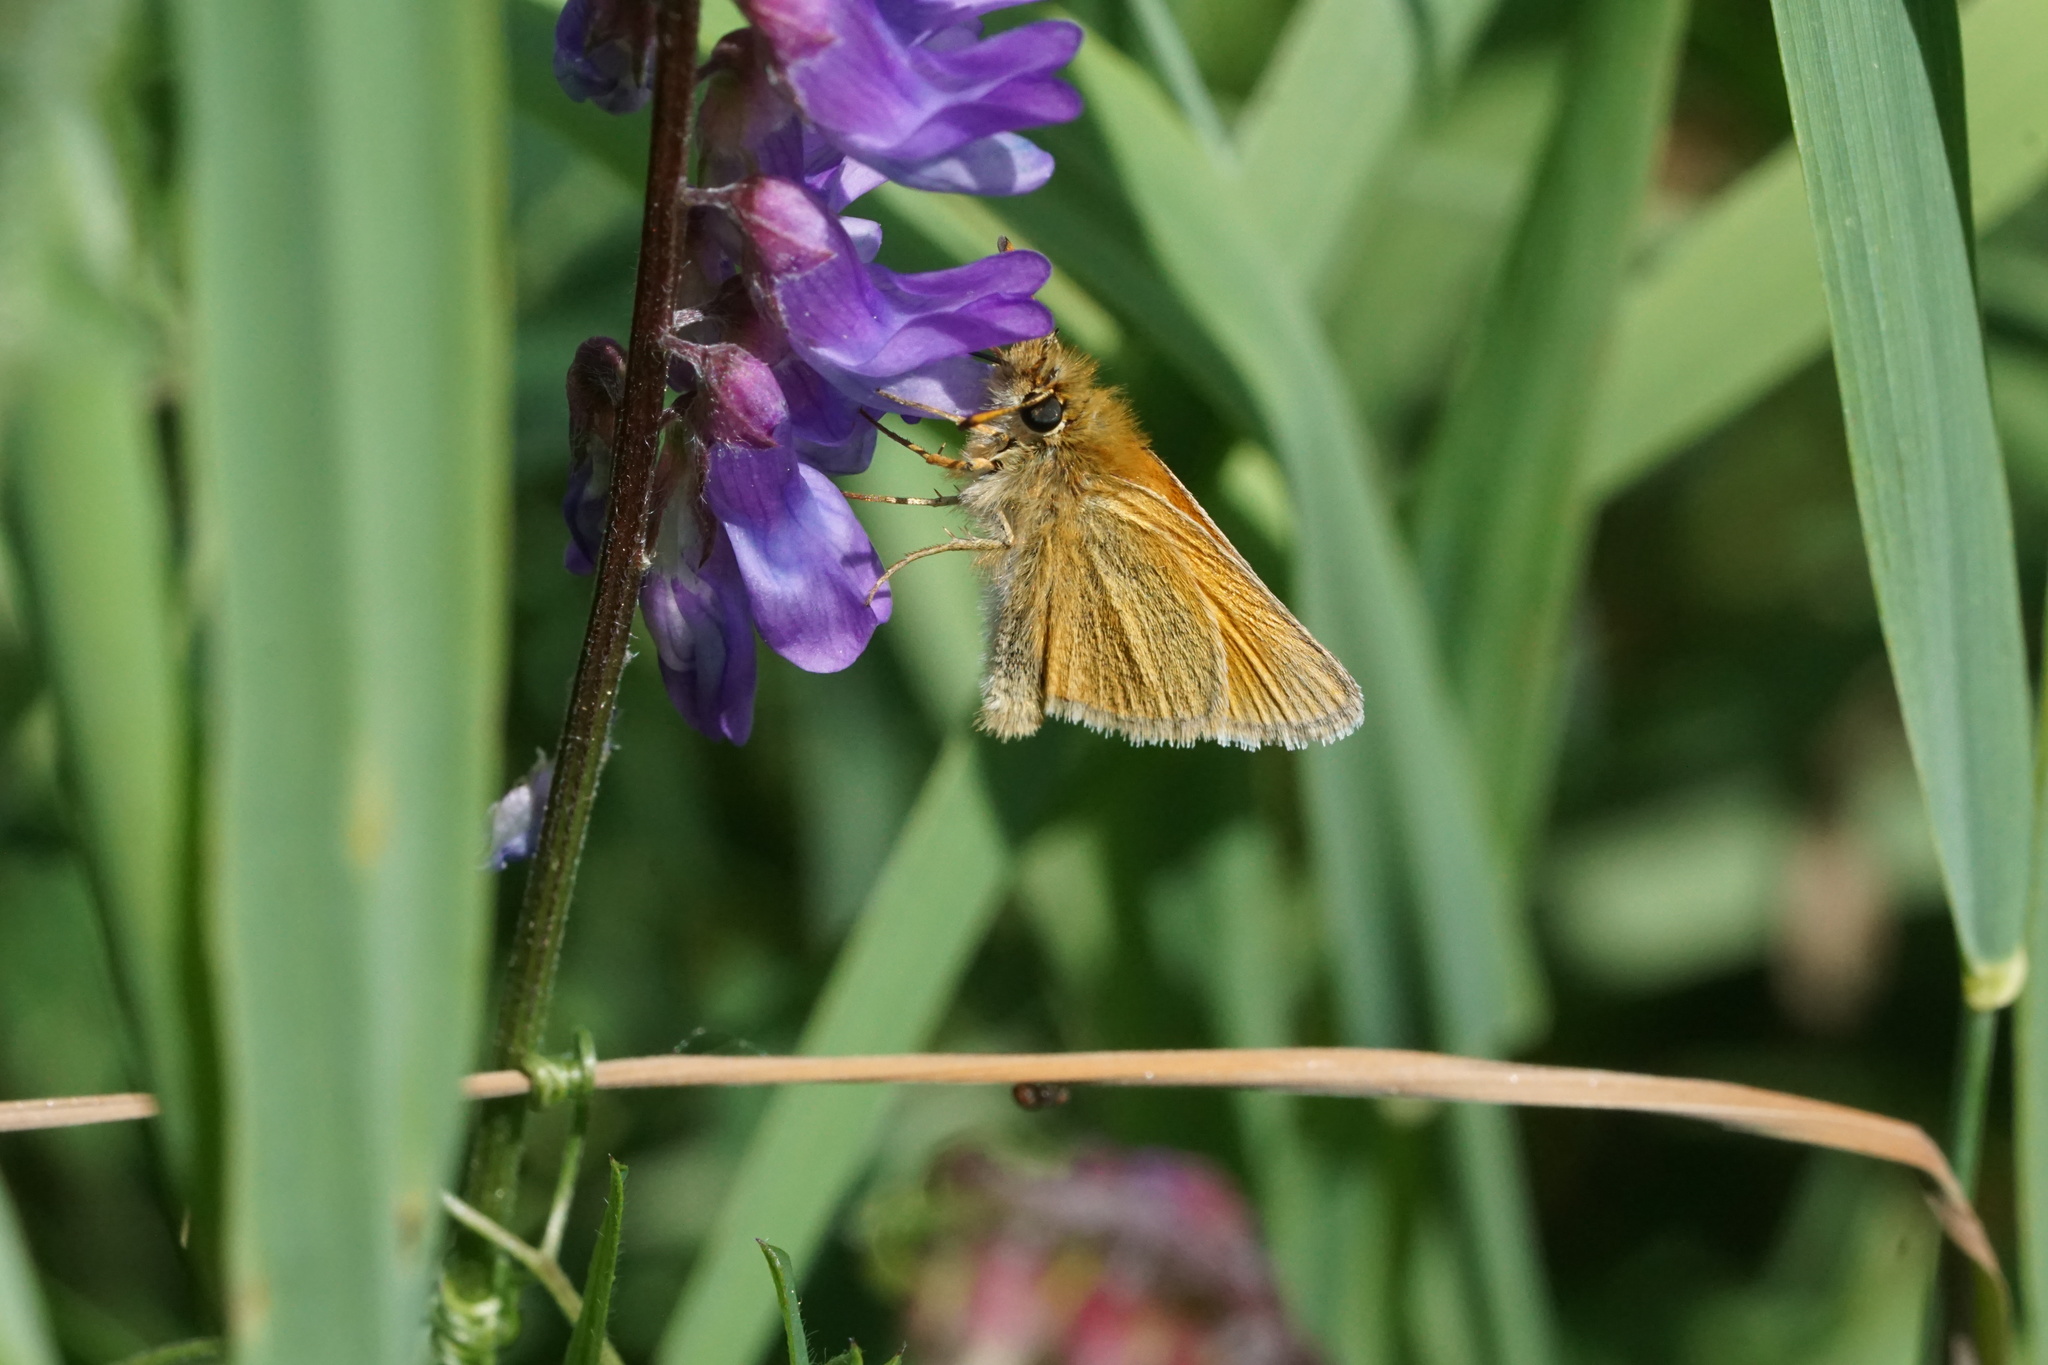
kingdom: Animalia
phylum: Arthropoda
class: Insecta
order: Lepidoptera
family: Hesperiidae
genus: Thymelicus
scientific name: Thymelicus lineola
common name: Essex skipper
